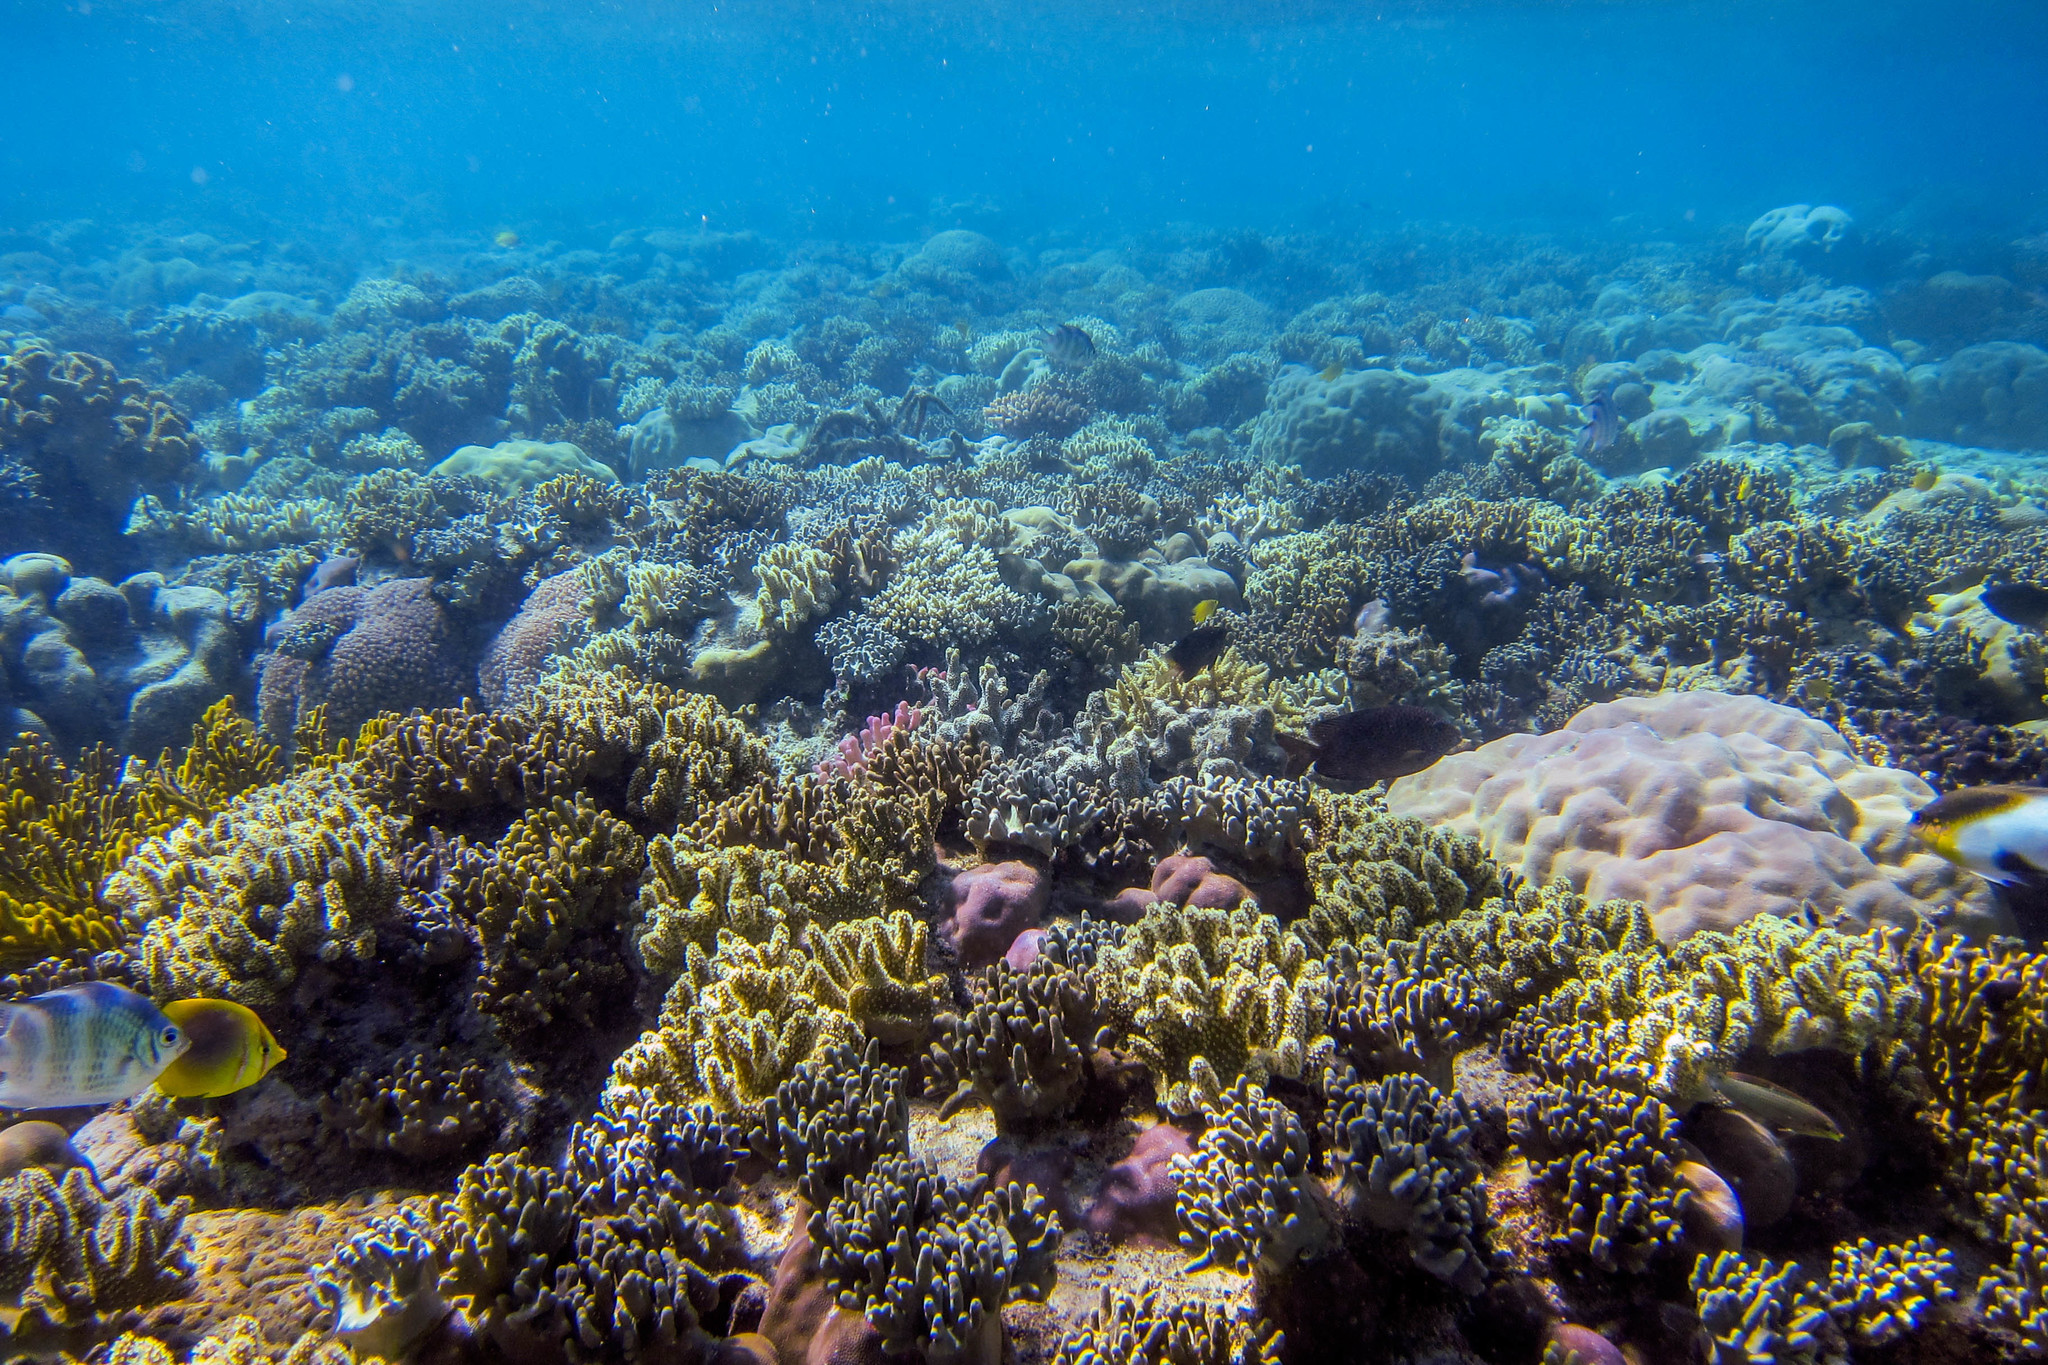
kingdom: Animalia
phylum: Chordata
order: Perciformes
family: Pomacentridae
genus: Amblyglyphidodon
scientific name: Amblyglyphidodon curacao
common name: Staghorn damsel
